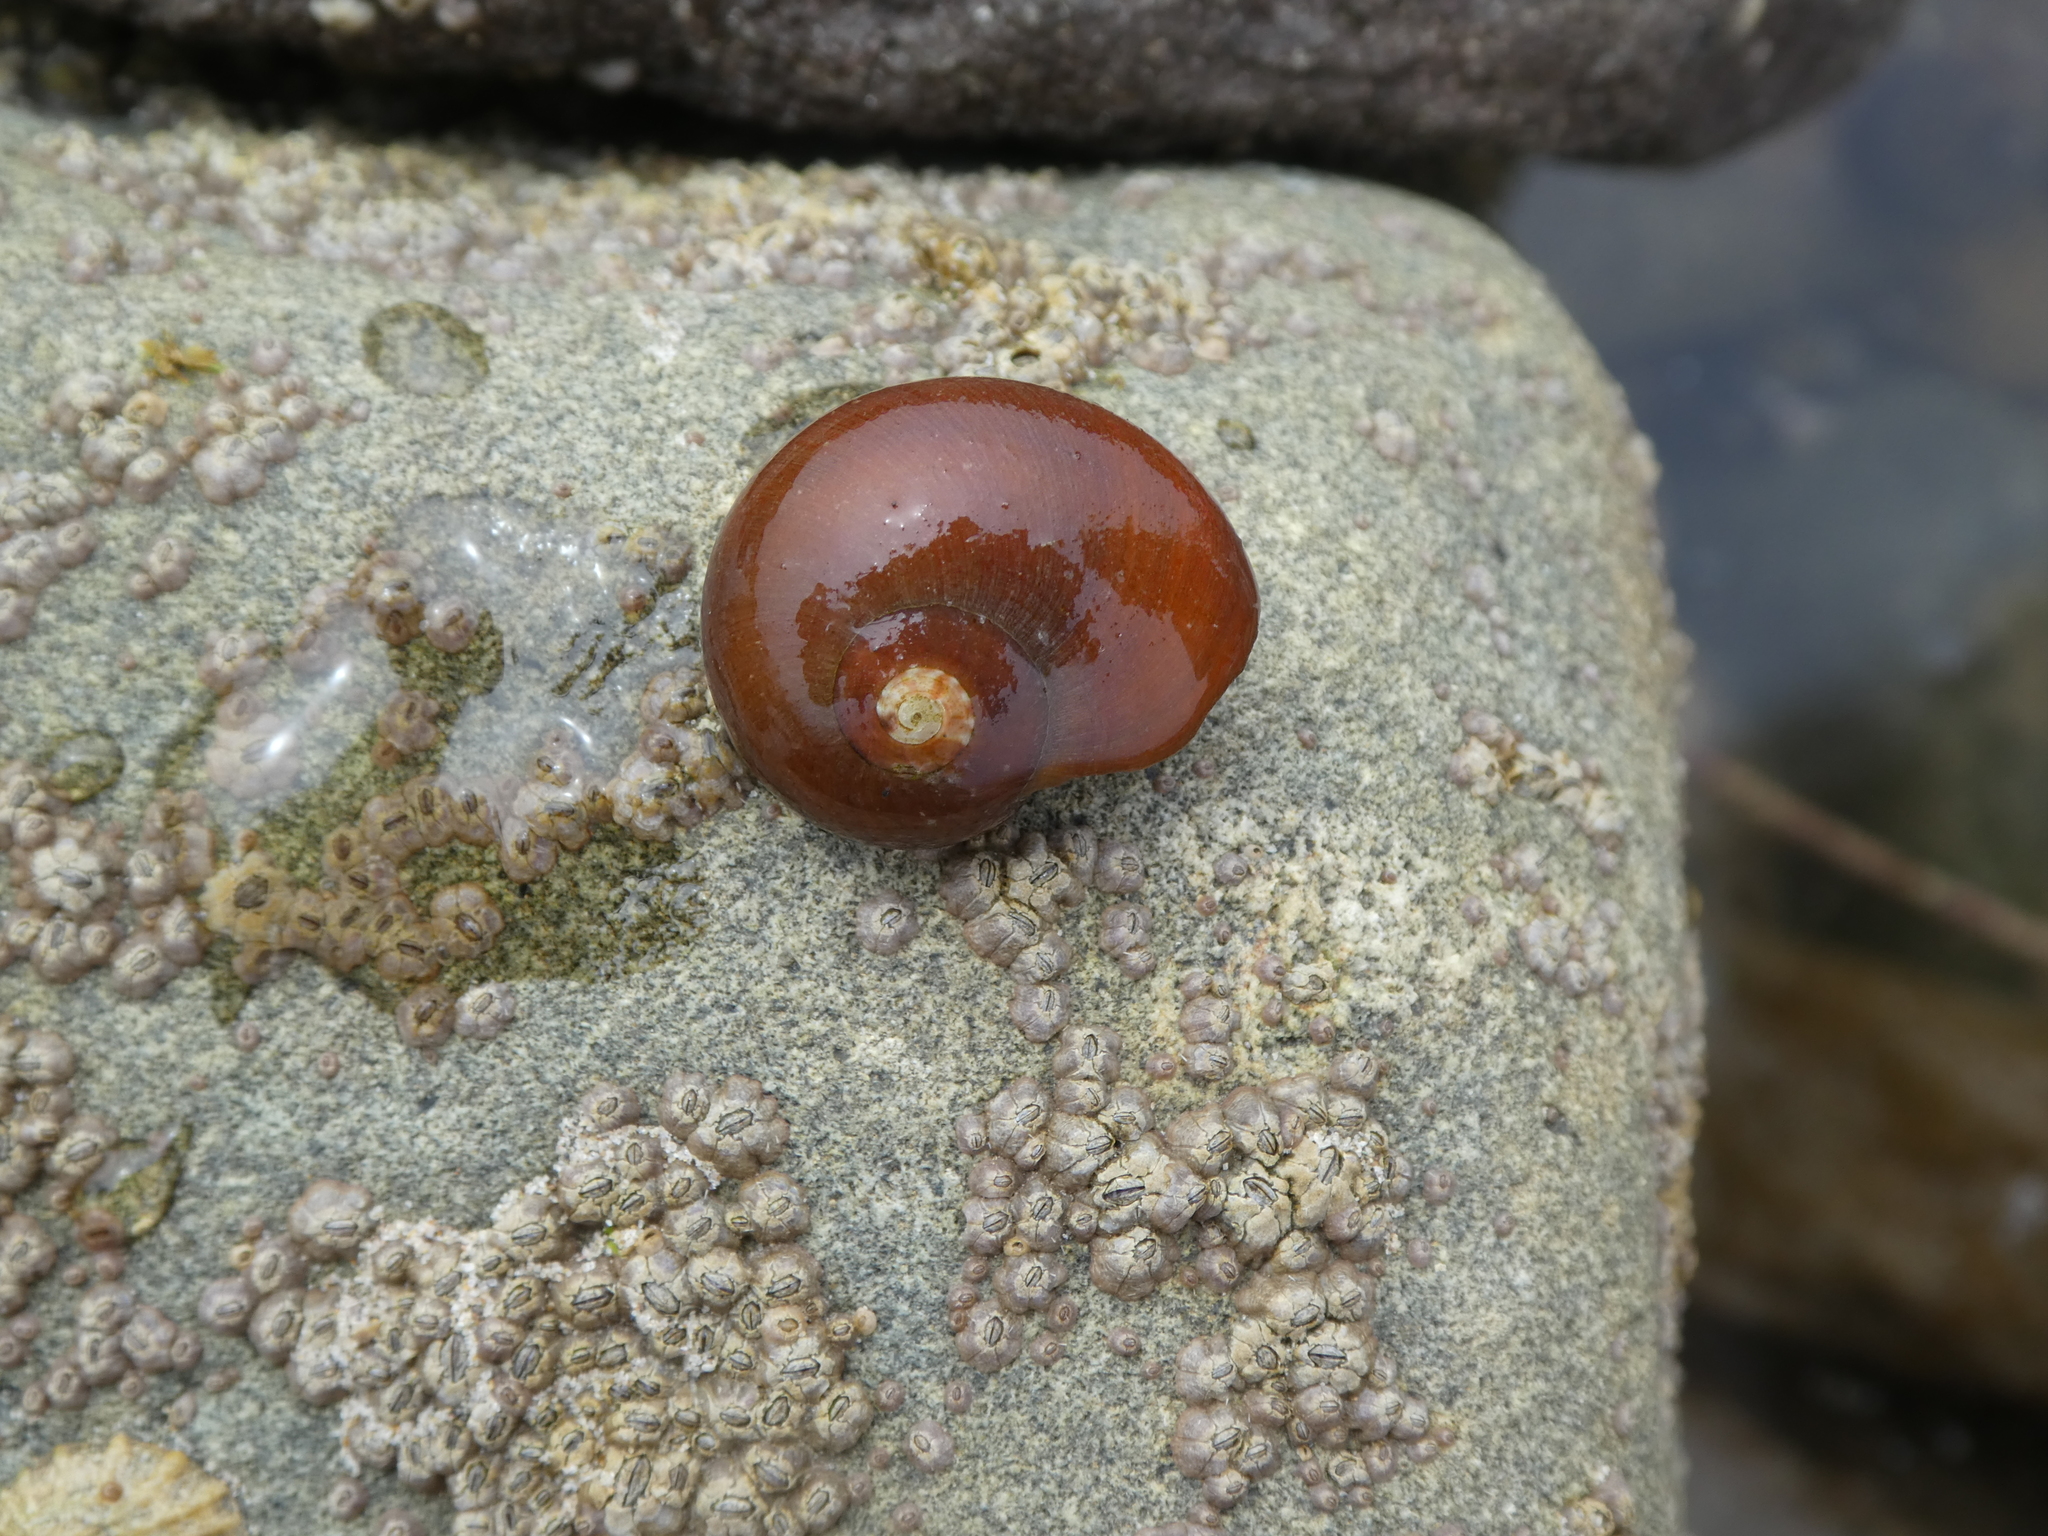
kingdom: Animalia
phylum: Mollusca
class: Gastropoda
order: Trochida
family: Tegulidae
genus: Norrisia
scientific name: Norrisia norrisii
